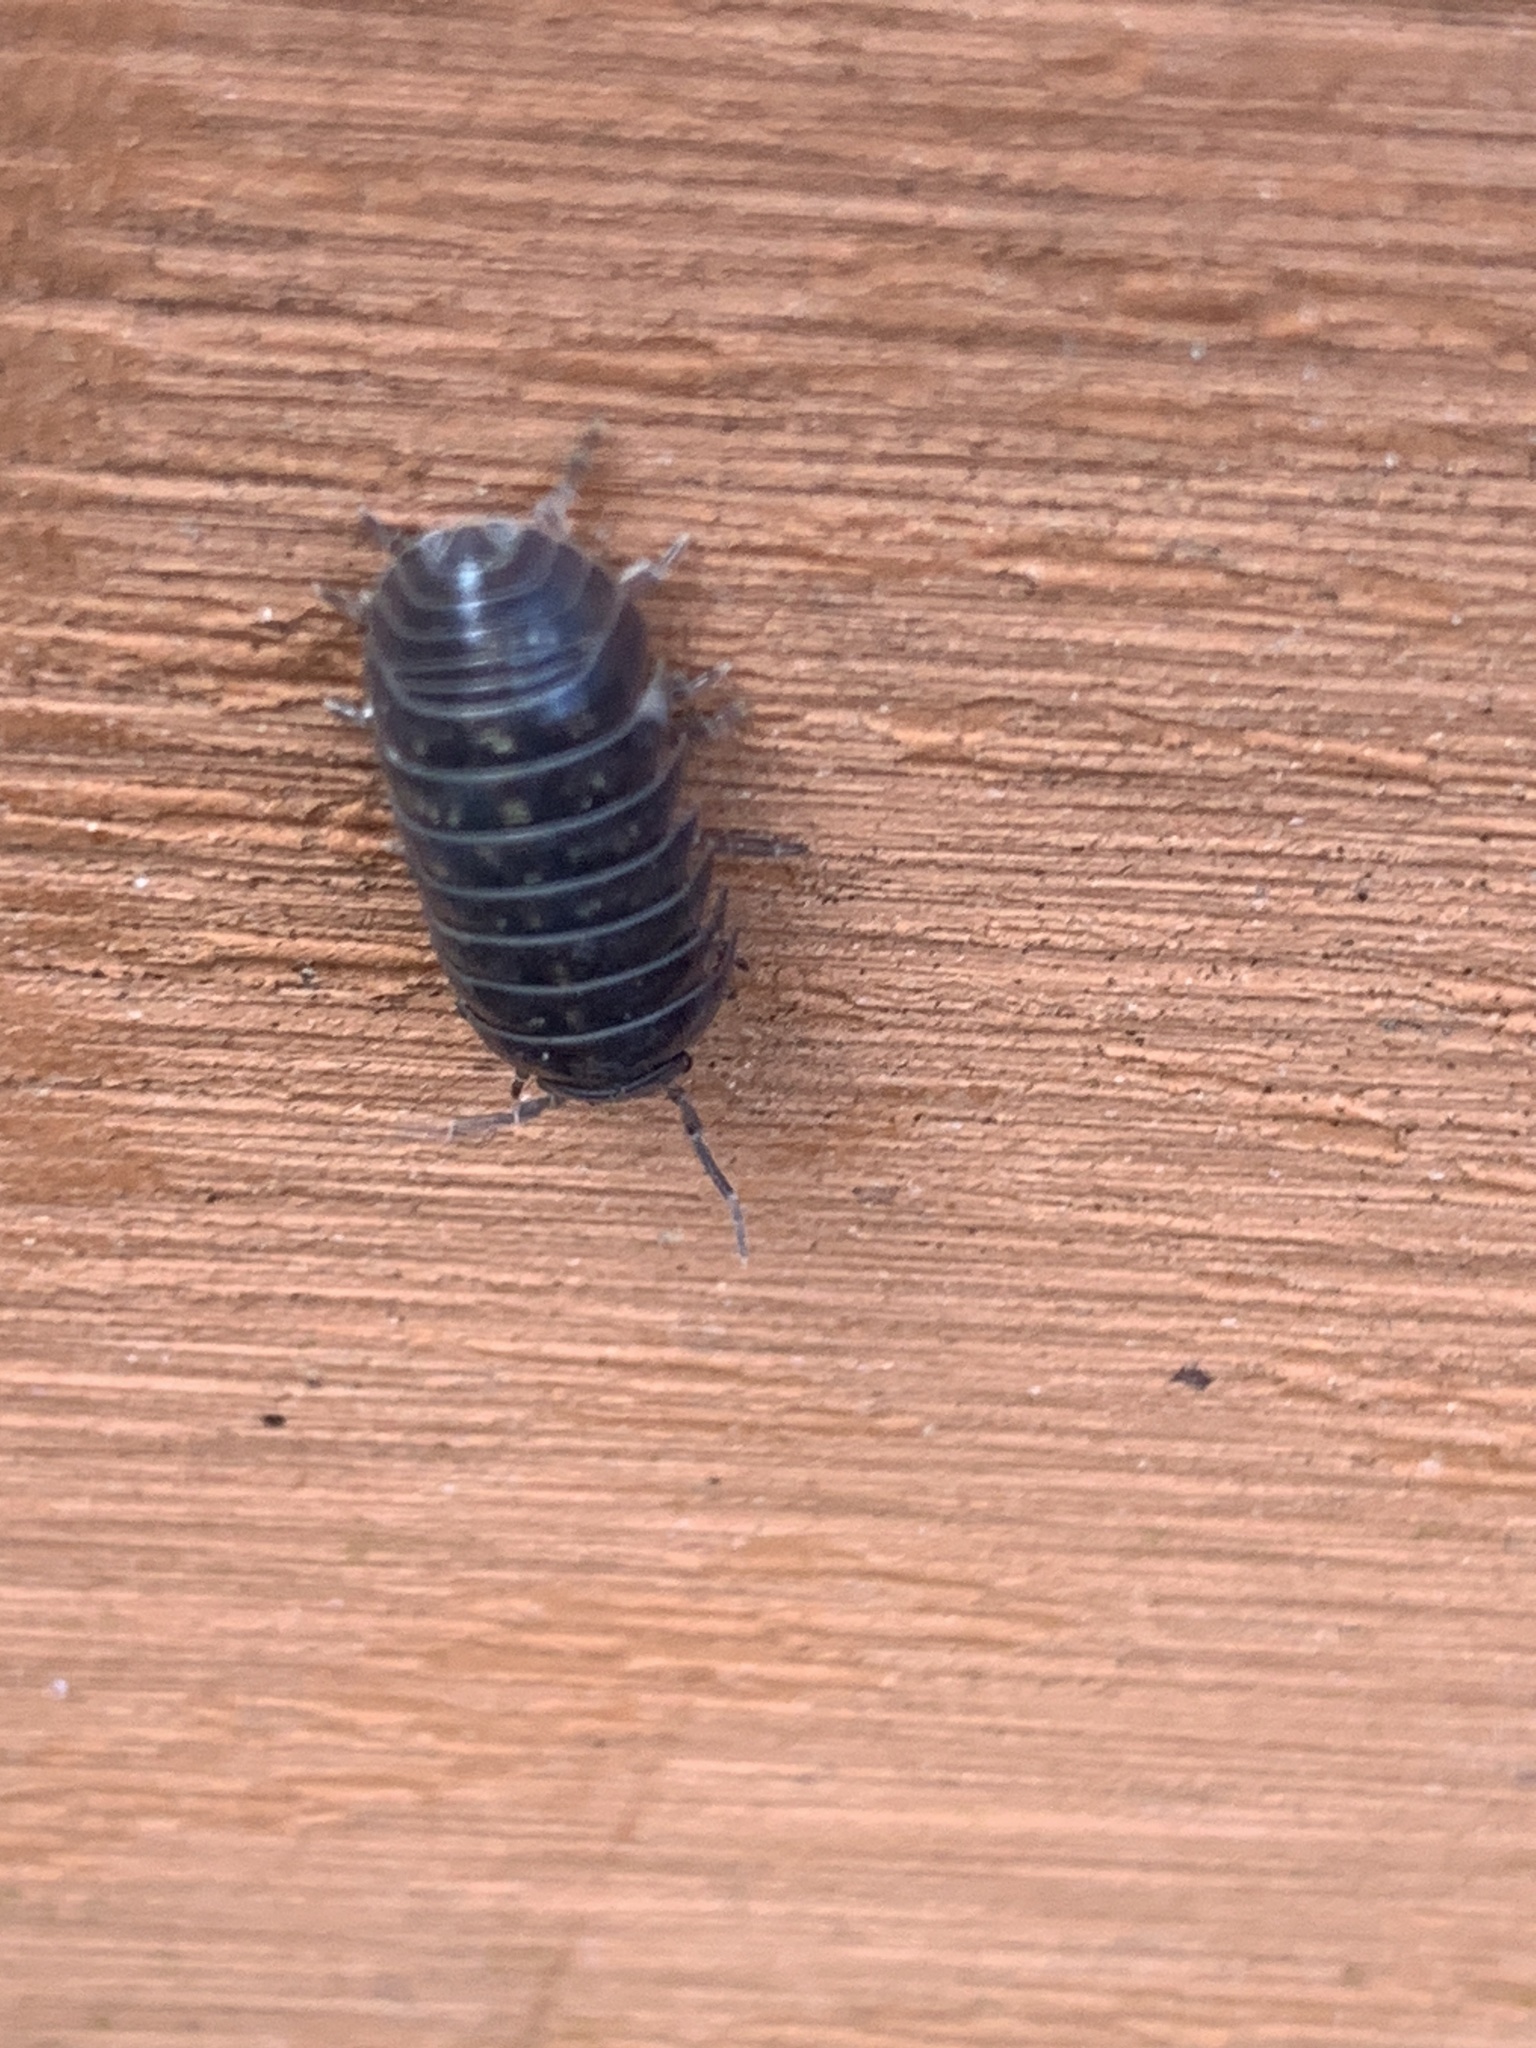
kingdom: Animalia
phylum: Arthropoda
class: Malacostraca
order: Isopoda
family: Armadillidiidae
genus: Armadillidium
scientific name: Armadillidium vulgare
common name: Common pill woodlouse
